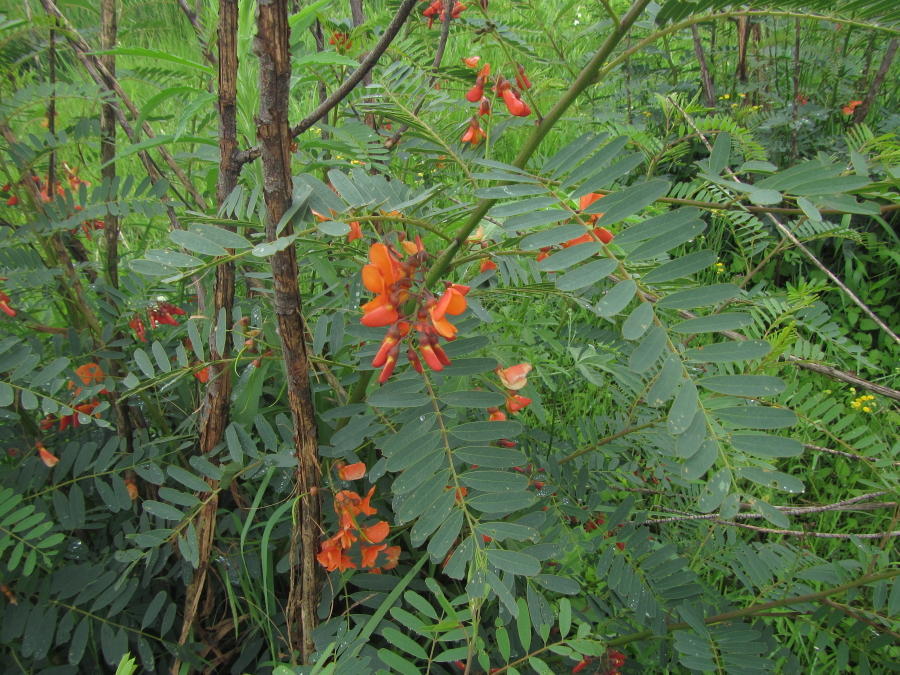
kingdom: Plantae
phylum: Tracheophyta
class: Magnoliopsida
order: Fabales
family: Fabaceae
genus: Sesbania
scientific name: Sesbania punicea
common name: Rattlebox
